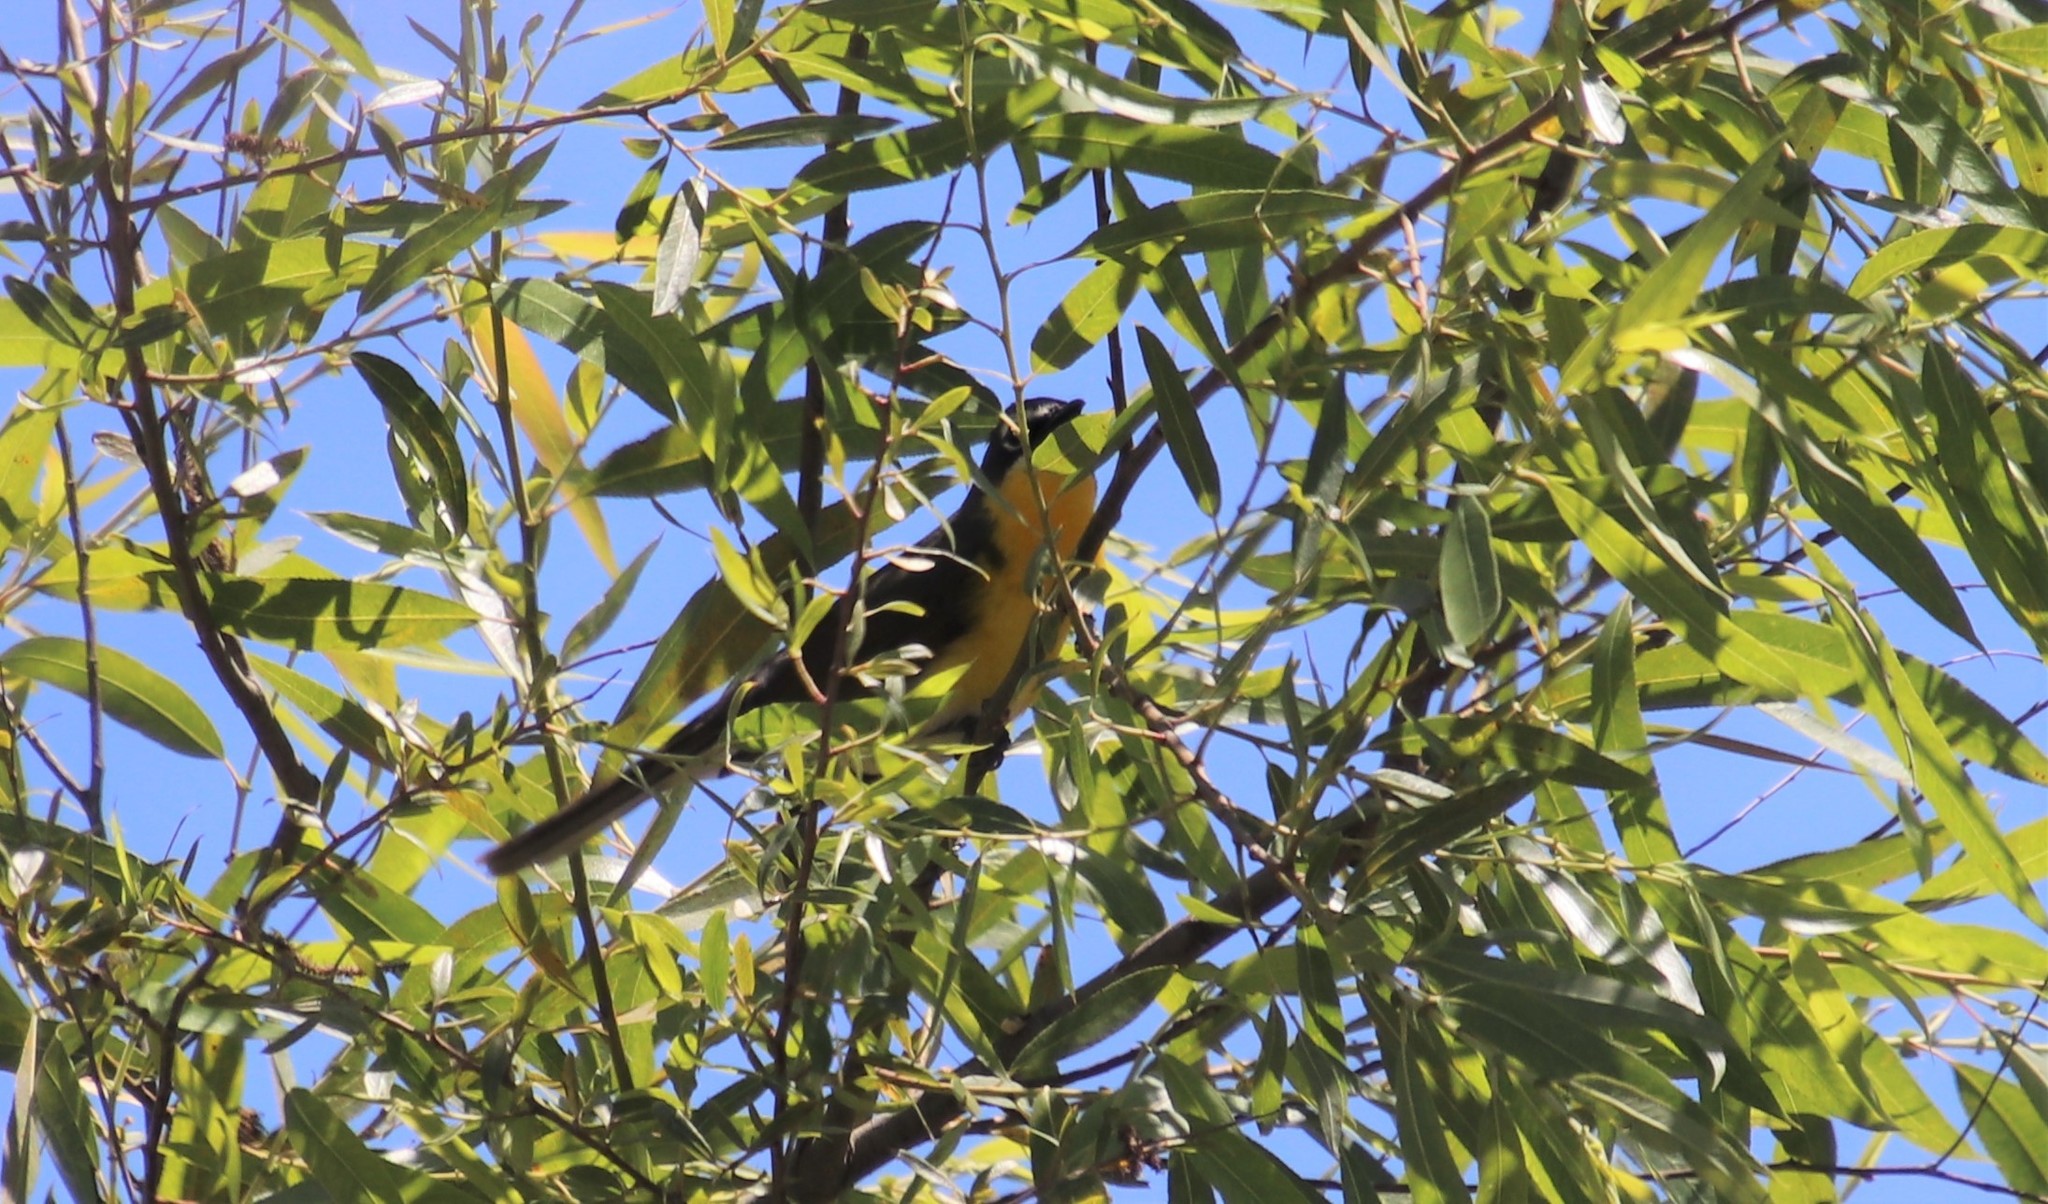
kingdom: Animalia
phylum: Chordata
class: Aves
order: Passeriformes
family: Parulidae
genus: Icteria
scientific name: Icteria virens
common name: Yellow-breasted chat
